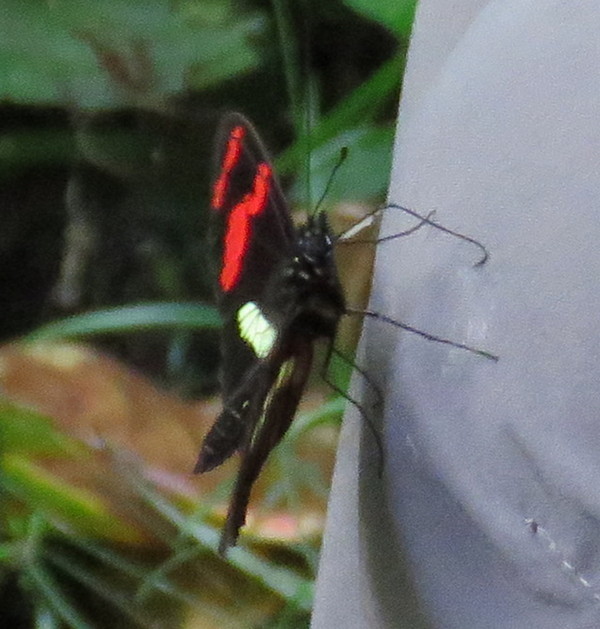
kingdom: Animalia
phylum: Arthropoda
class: Insecta
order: Lepidoptera
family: Nymphalidae
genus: Heliconius
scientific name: Heliconius telesiphe
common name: Telesiphe longwing
